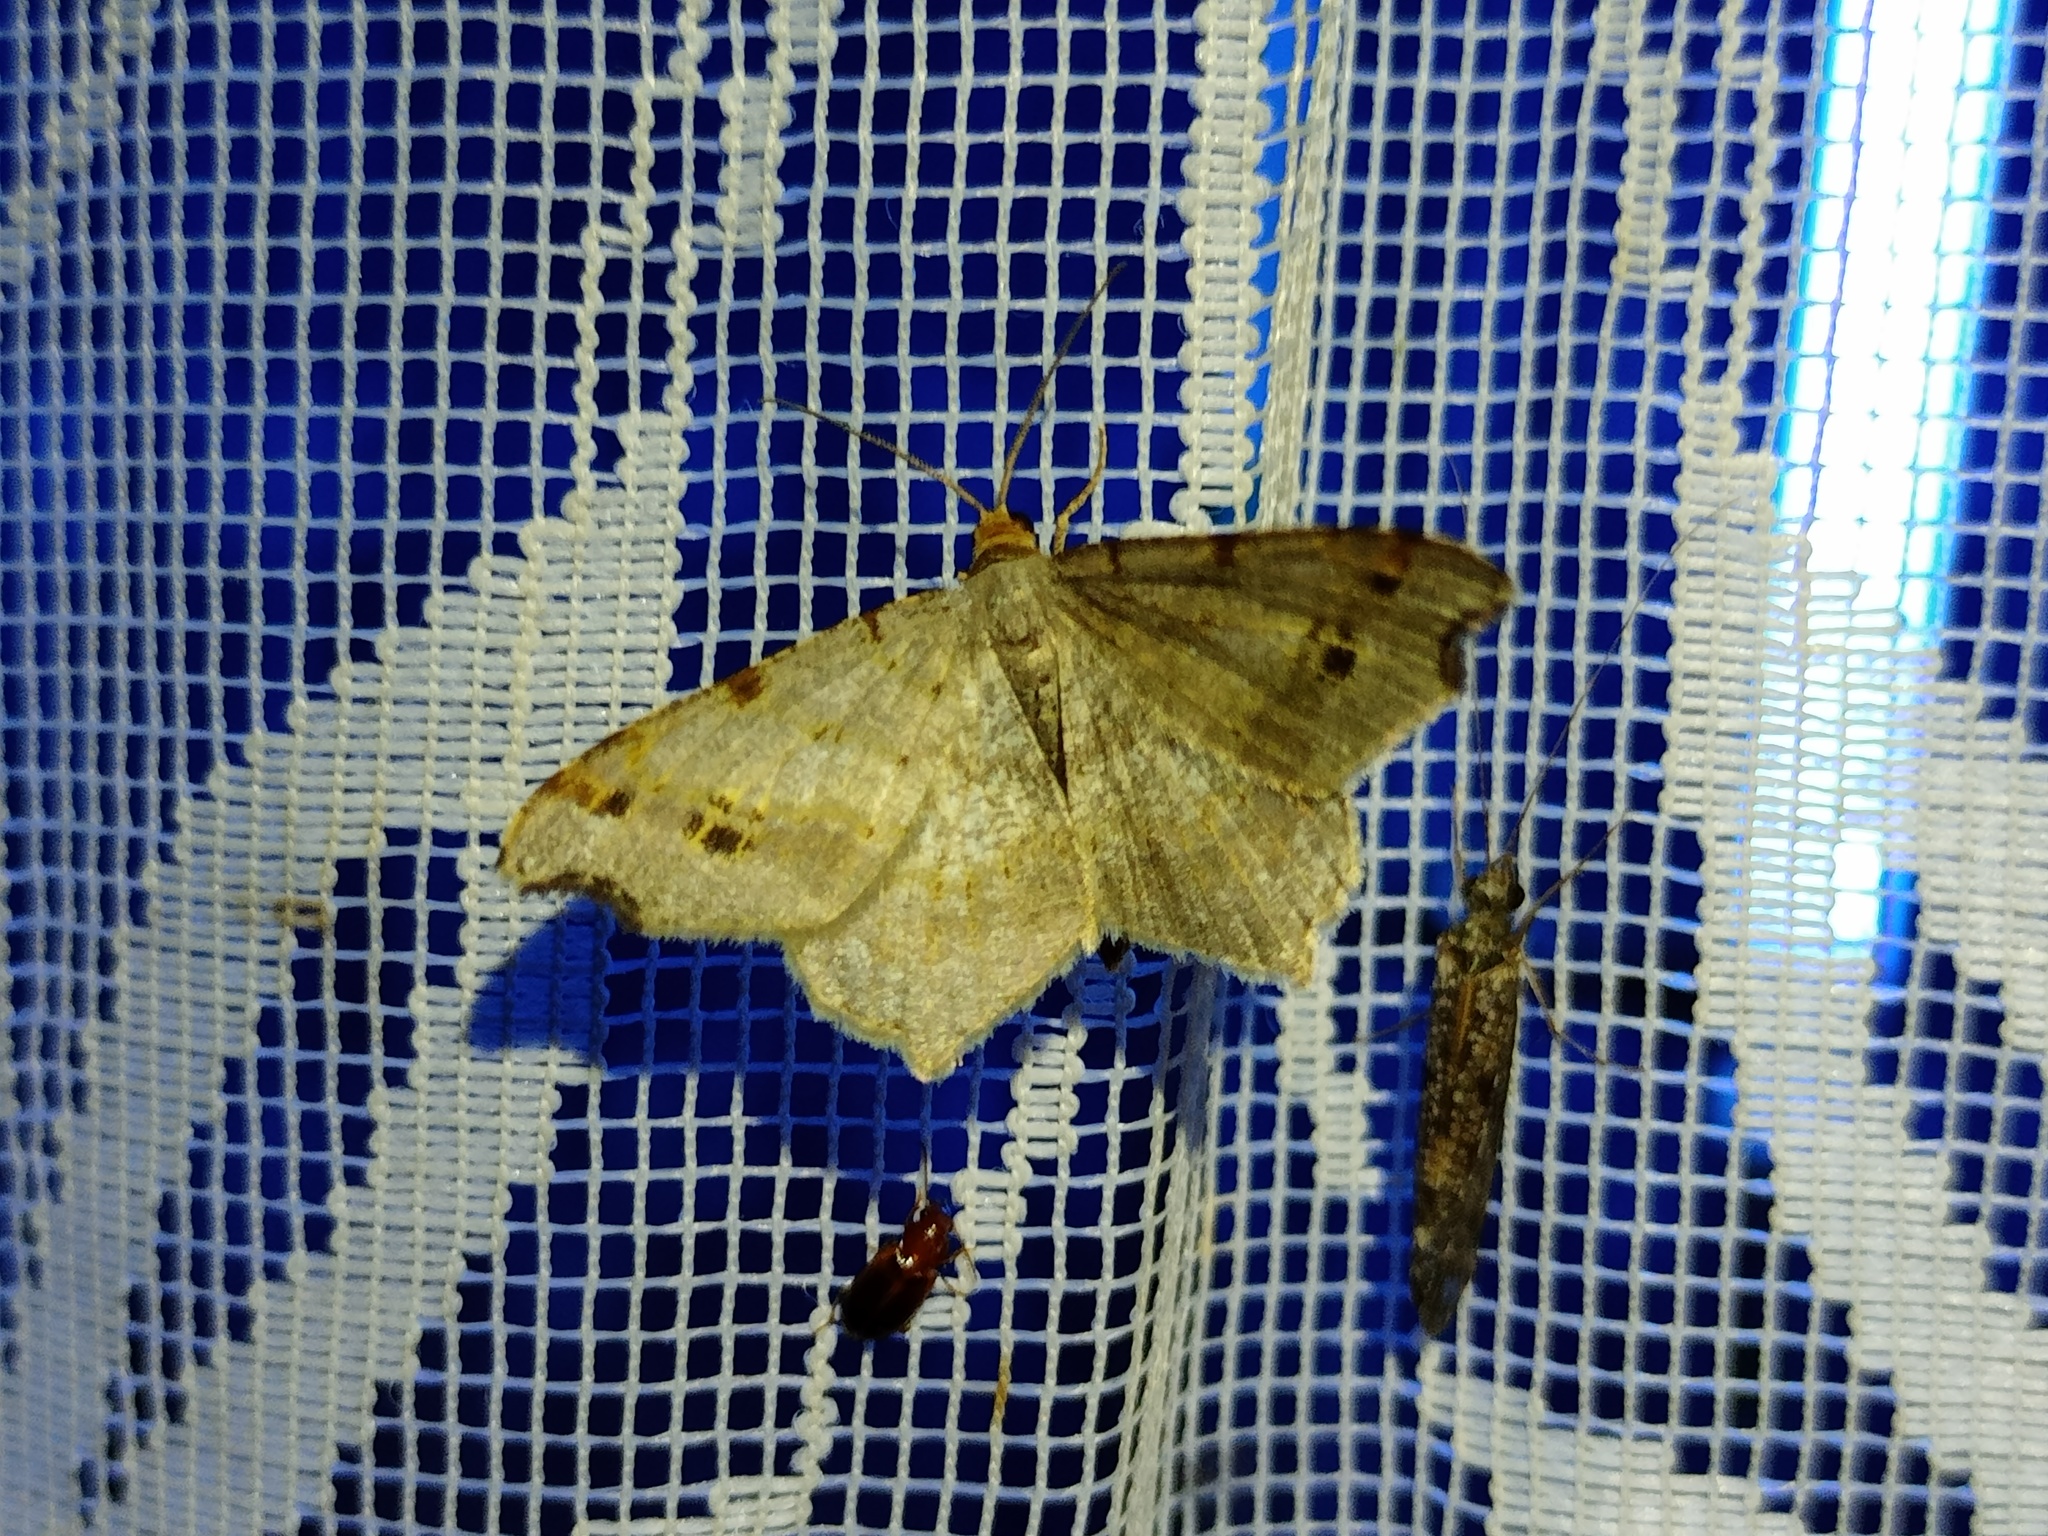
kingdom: Animalia
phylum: Arthropoda
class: Insecta
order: Lepidoptera
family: Geometridae
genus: Macaria
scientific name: Macaria alternata
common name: Sharp-angled peacock
